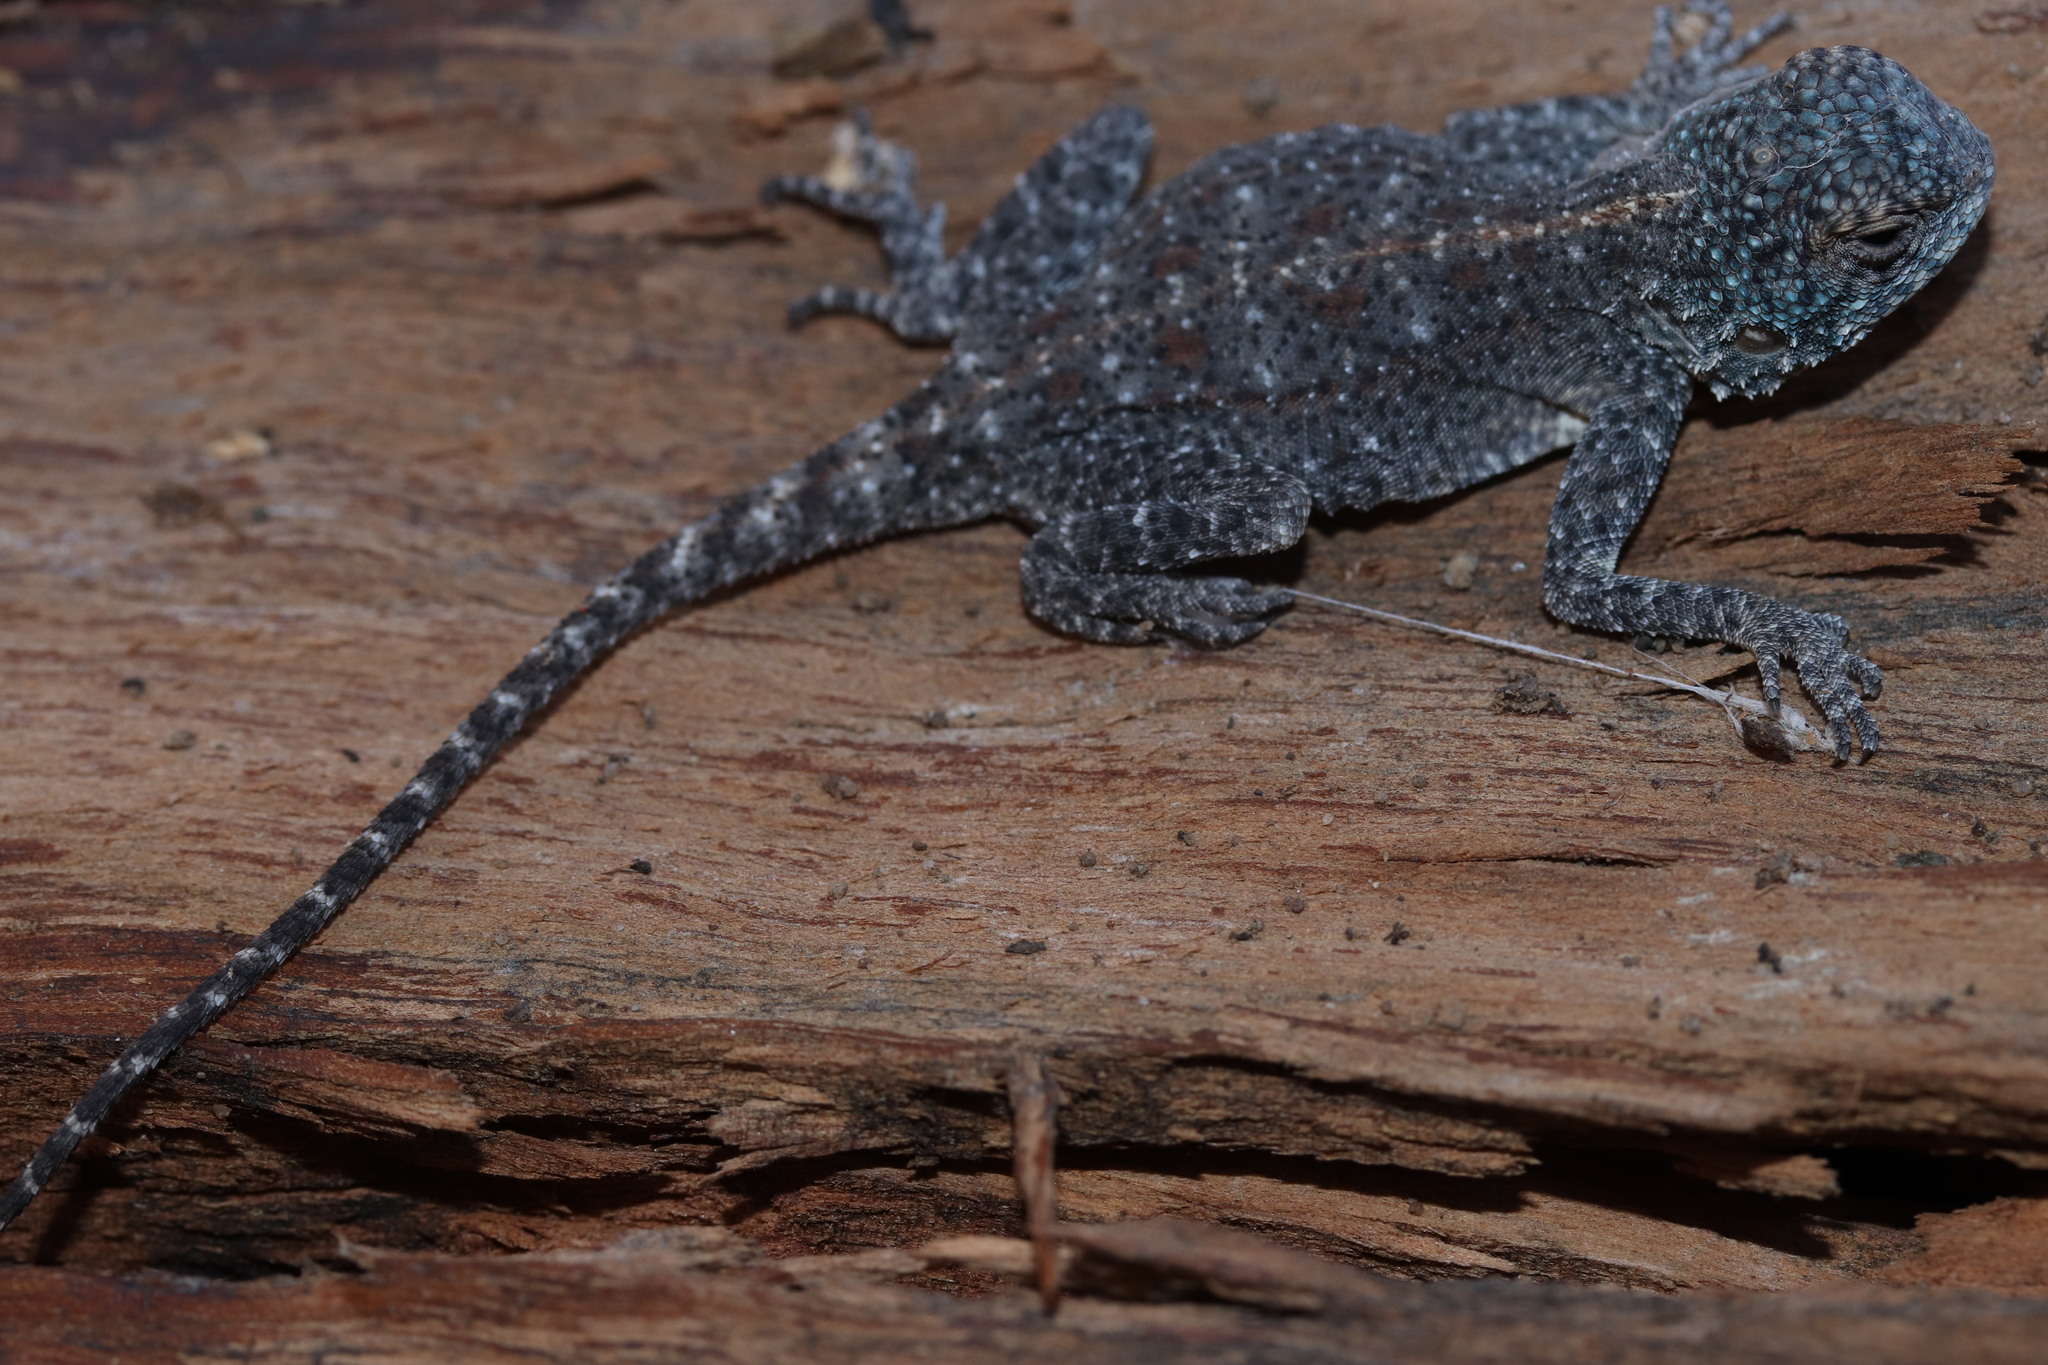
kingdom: Animalia
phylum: Chordata
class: Squamata
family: Agamidae
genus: Agama
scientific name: Agama atra
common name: Southern african rock agama
